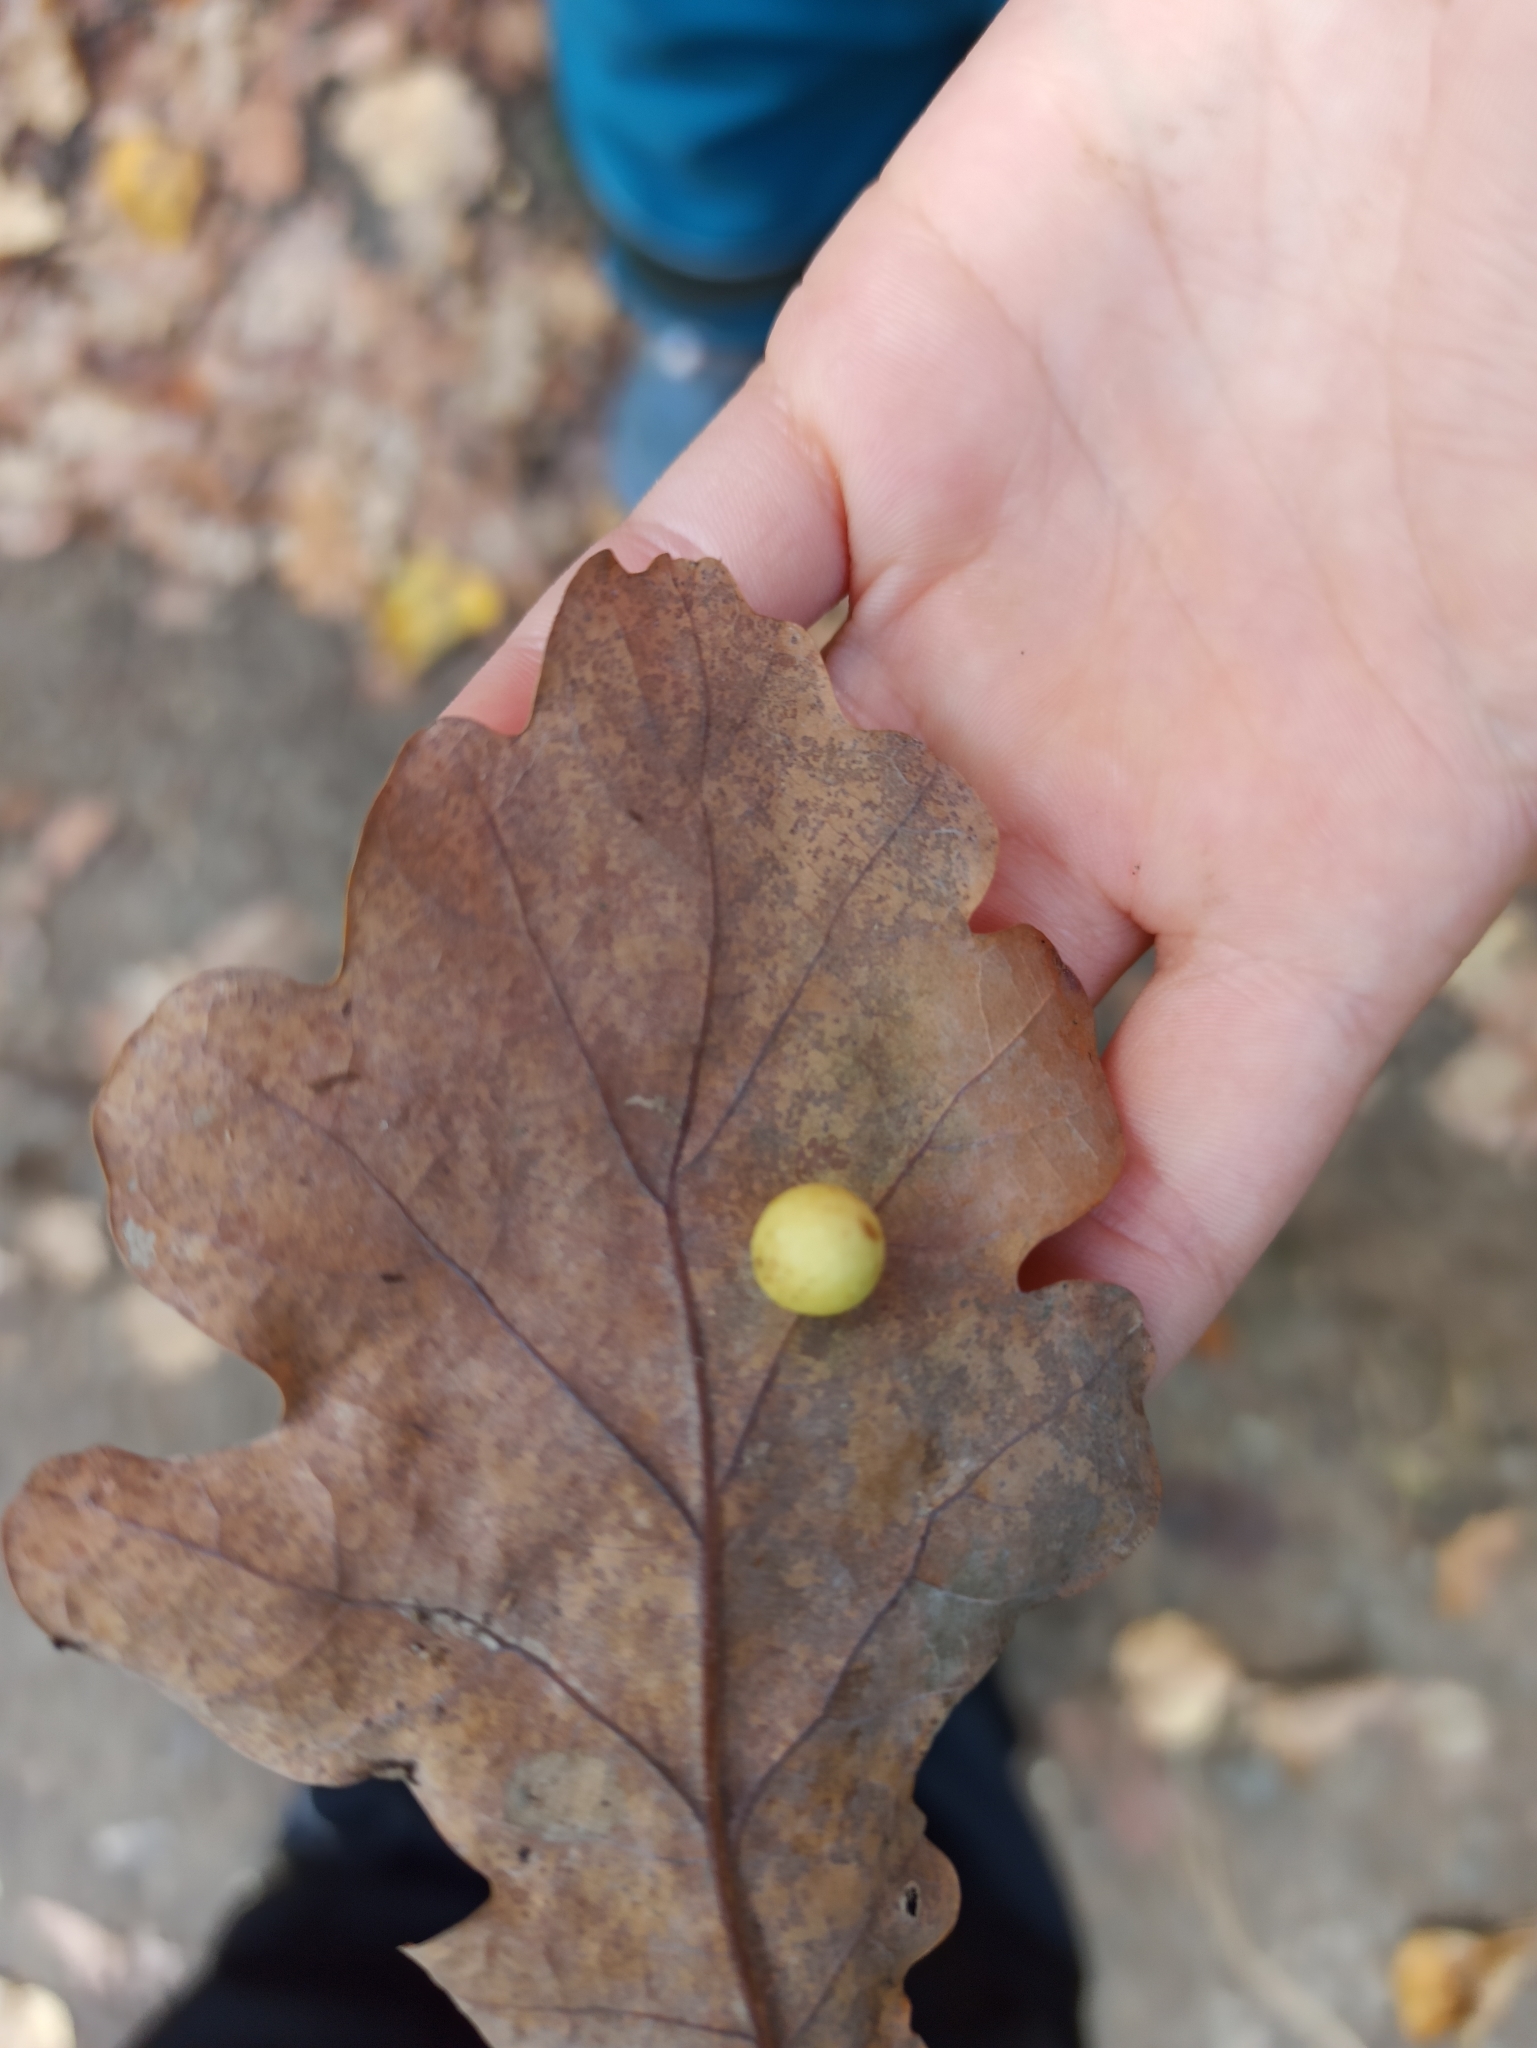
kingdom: Animalia
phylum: Arthropoda
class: Insecta
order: Hymenoptera
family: Cynipidae
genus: Cynips
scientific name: Cynips quercusfolii
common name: Cherry gall
